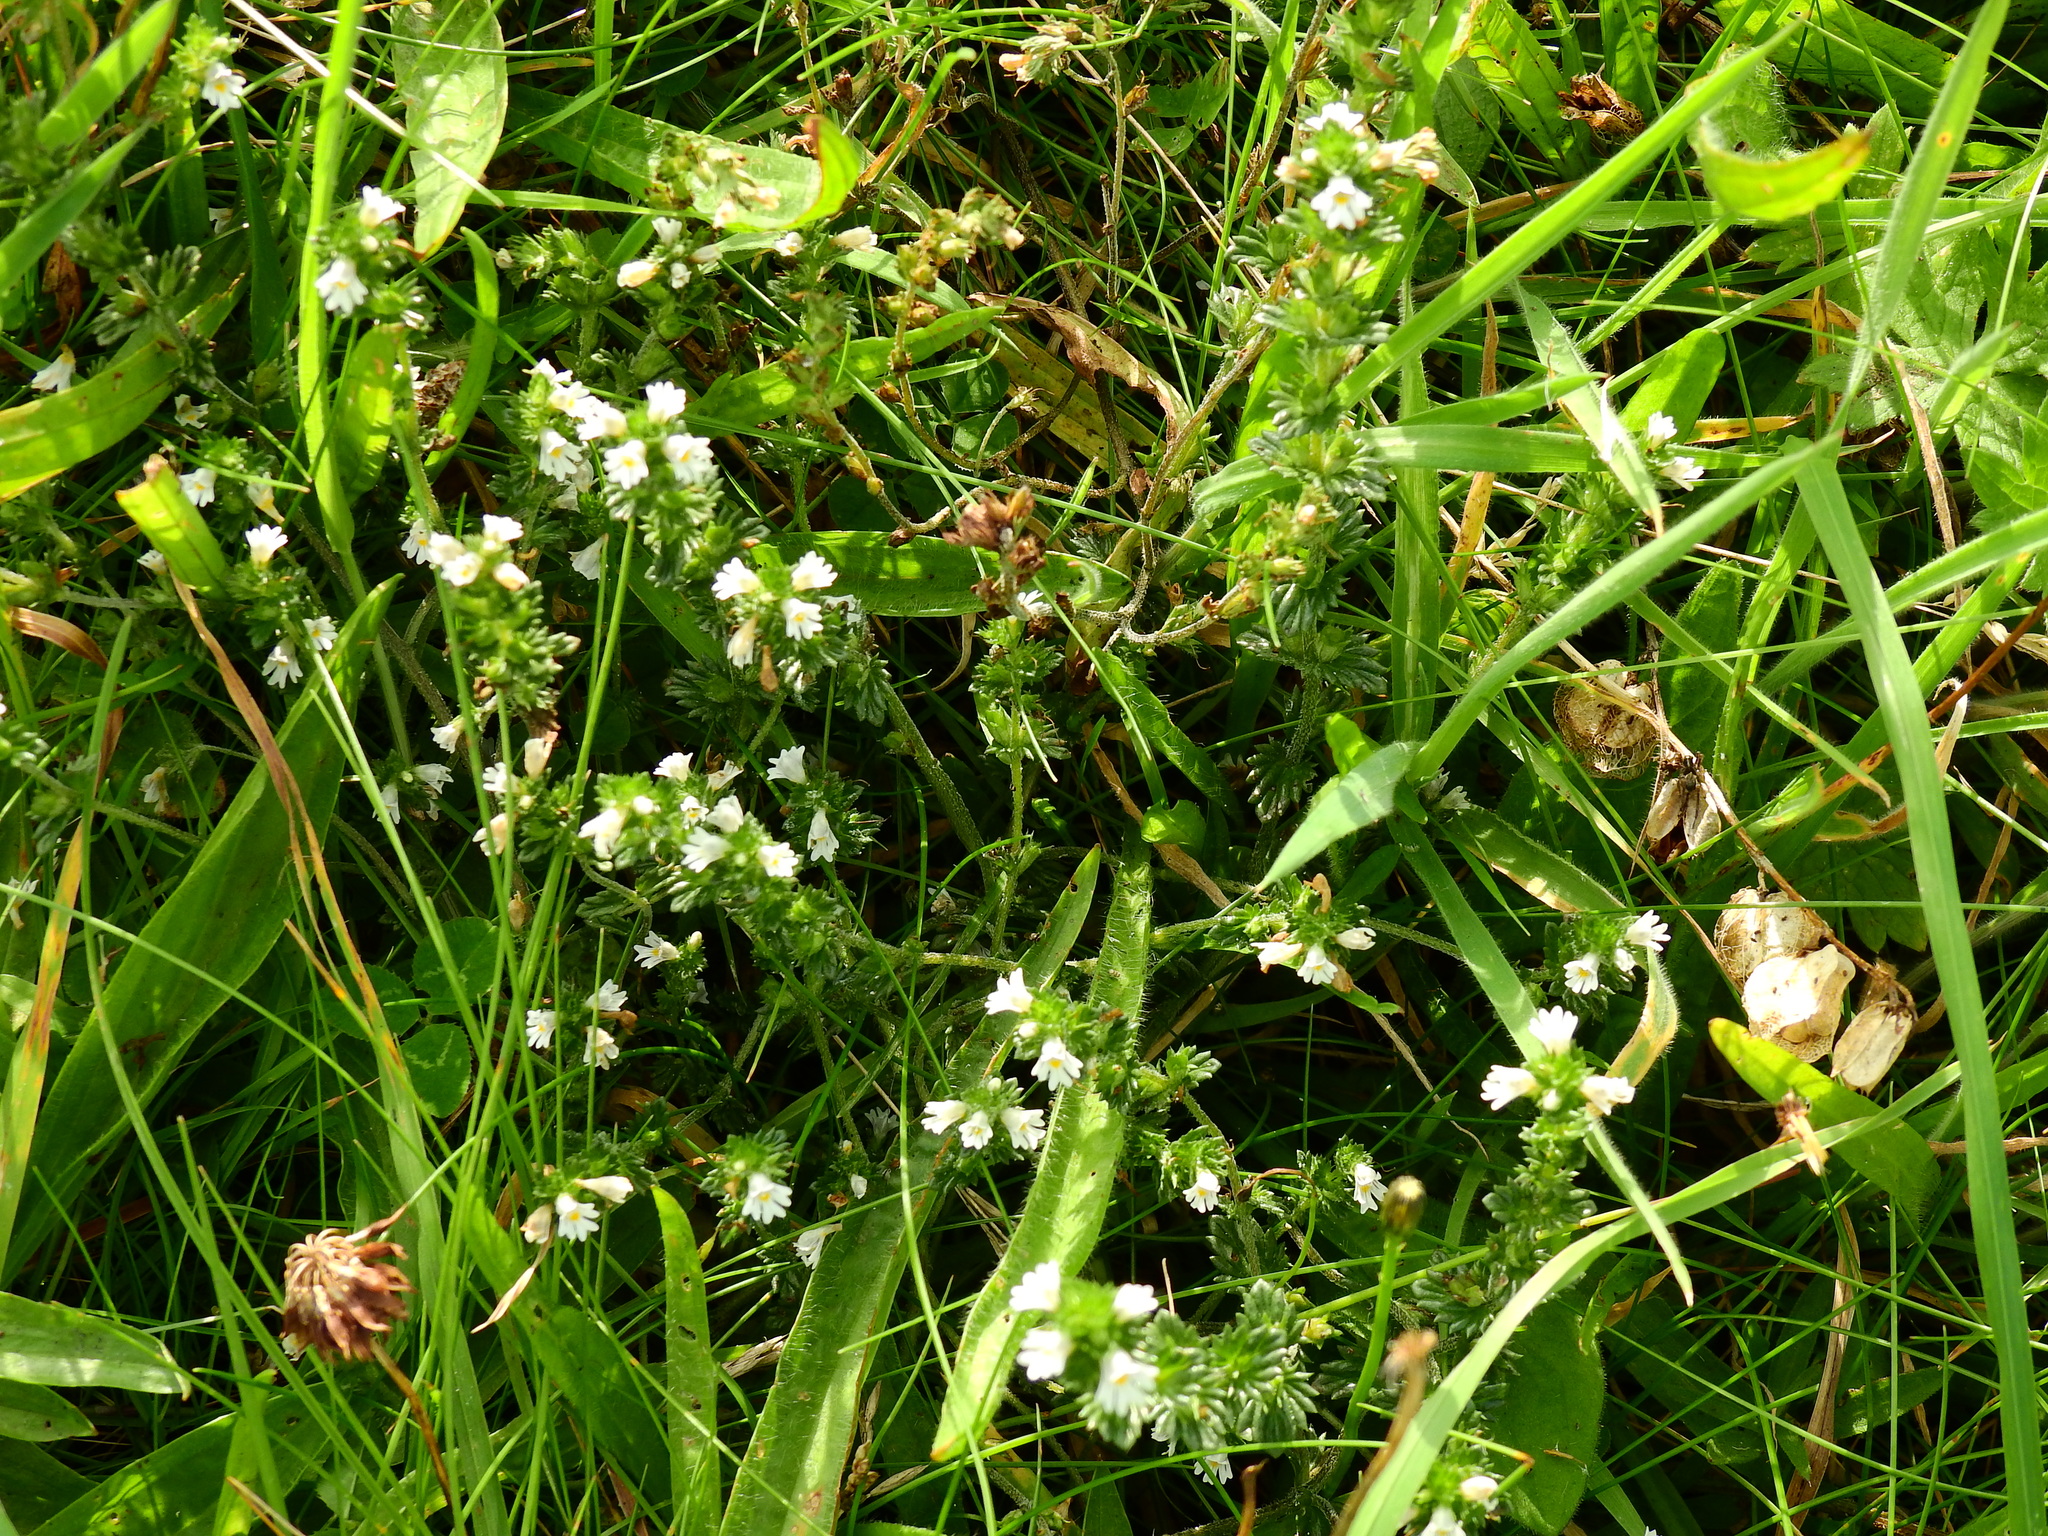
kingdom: Plantae
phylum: Tracheophyta
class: Magnoliopsida
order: Lamiales
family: Orobanchaceae
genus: Euphrasia
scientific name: Euphrasia nemorosa
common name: Common eyebright
